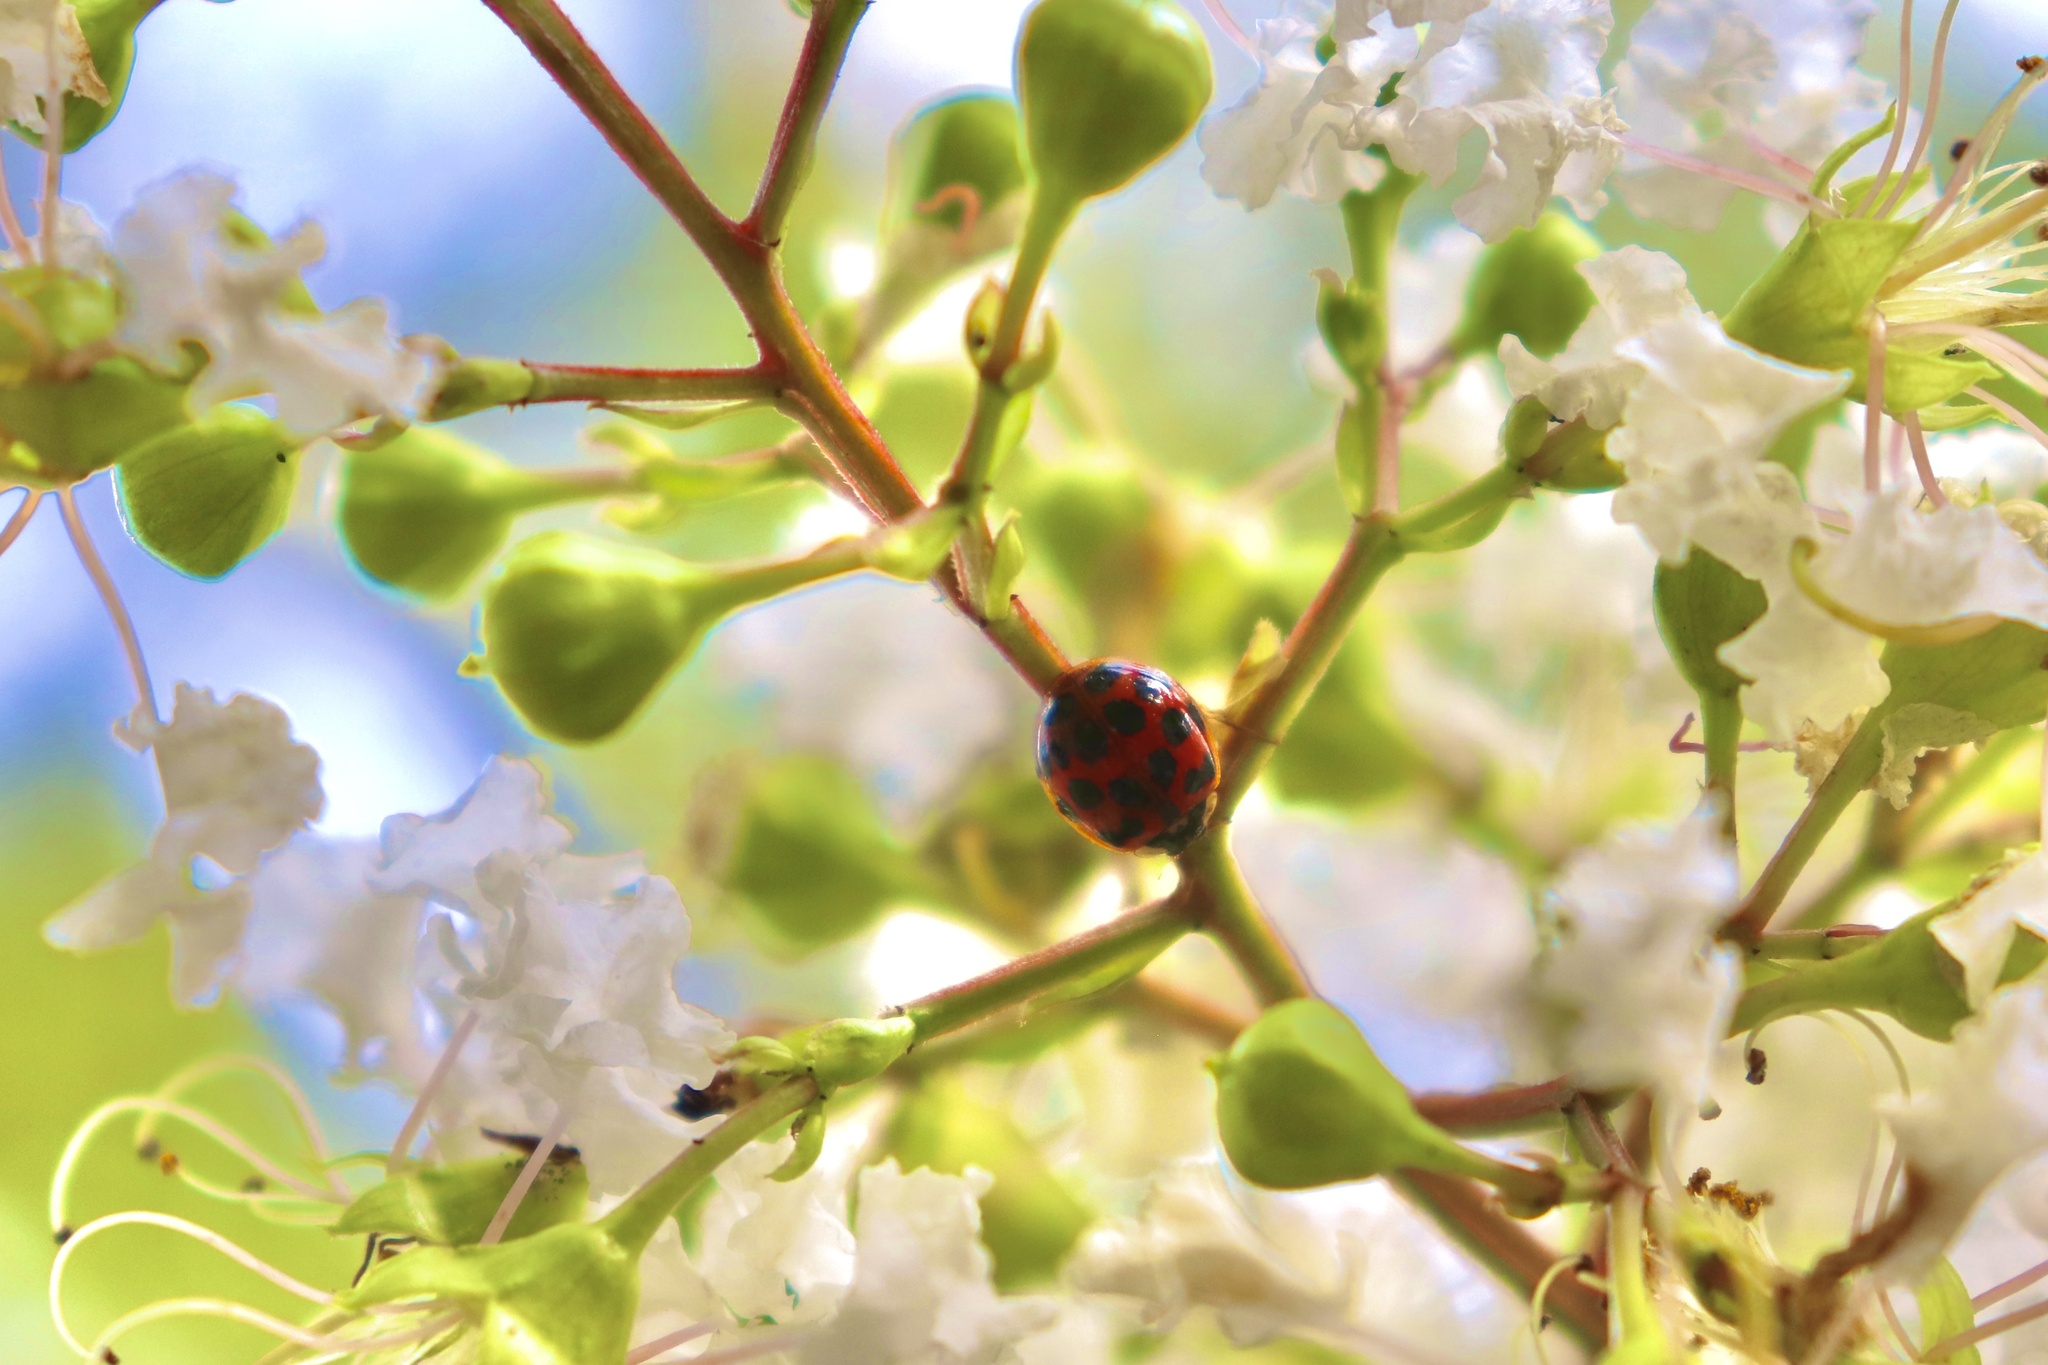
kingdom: Animalia
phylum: Arthropoda
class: Insecta
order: Coleoptera
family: Coccinellidae
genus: Harmonia
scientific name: Harmonia axyridis
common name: Harlequin ladybird
